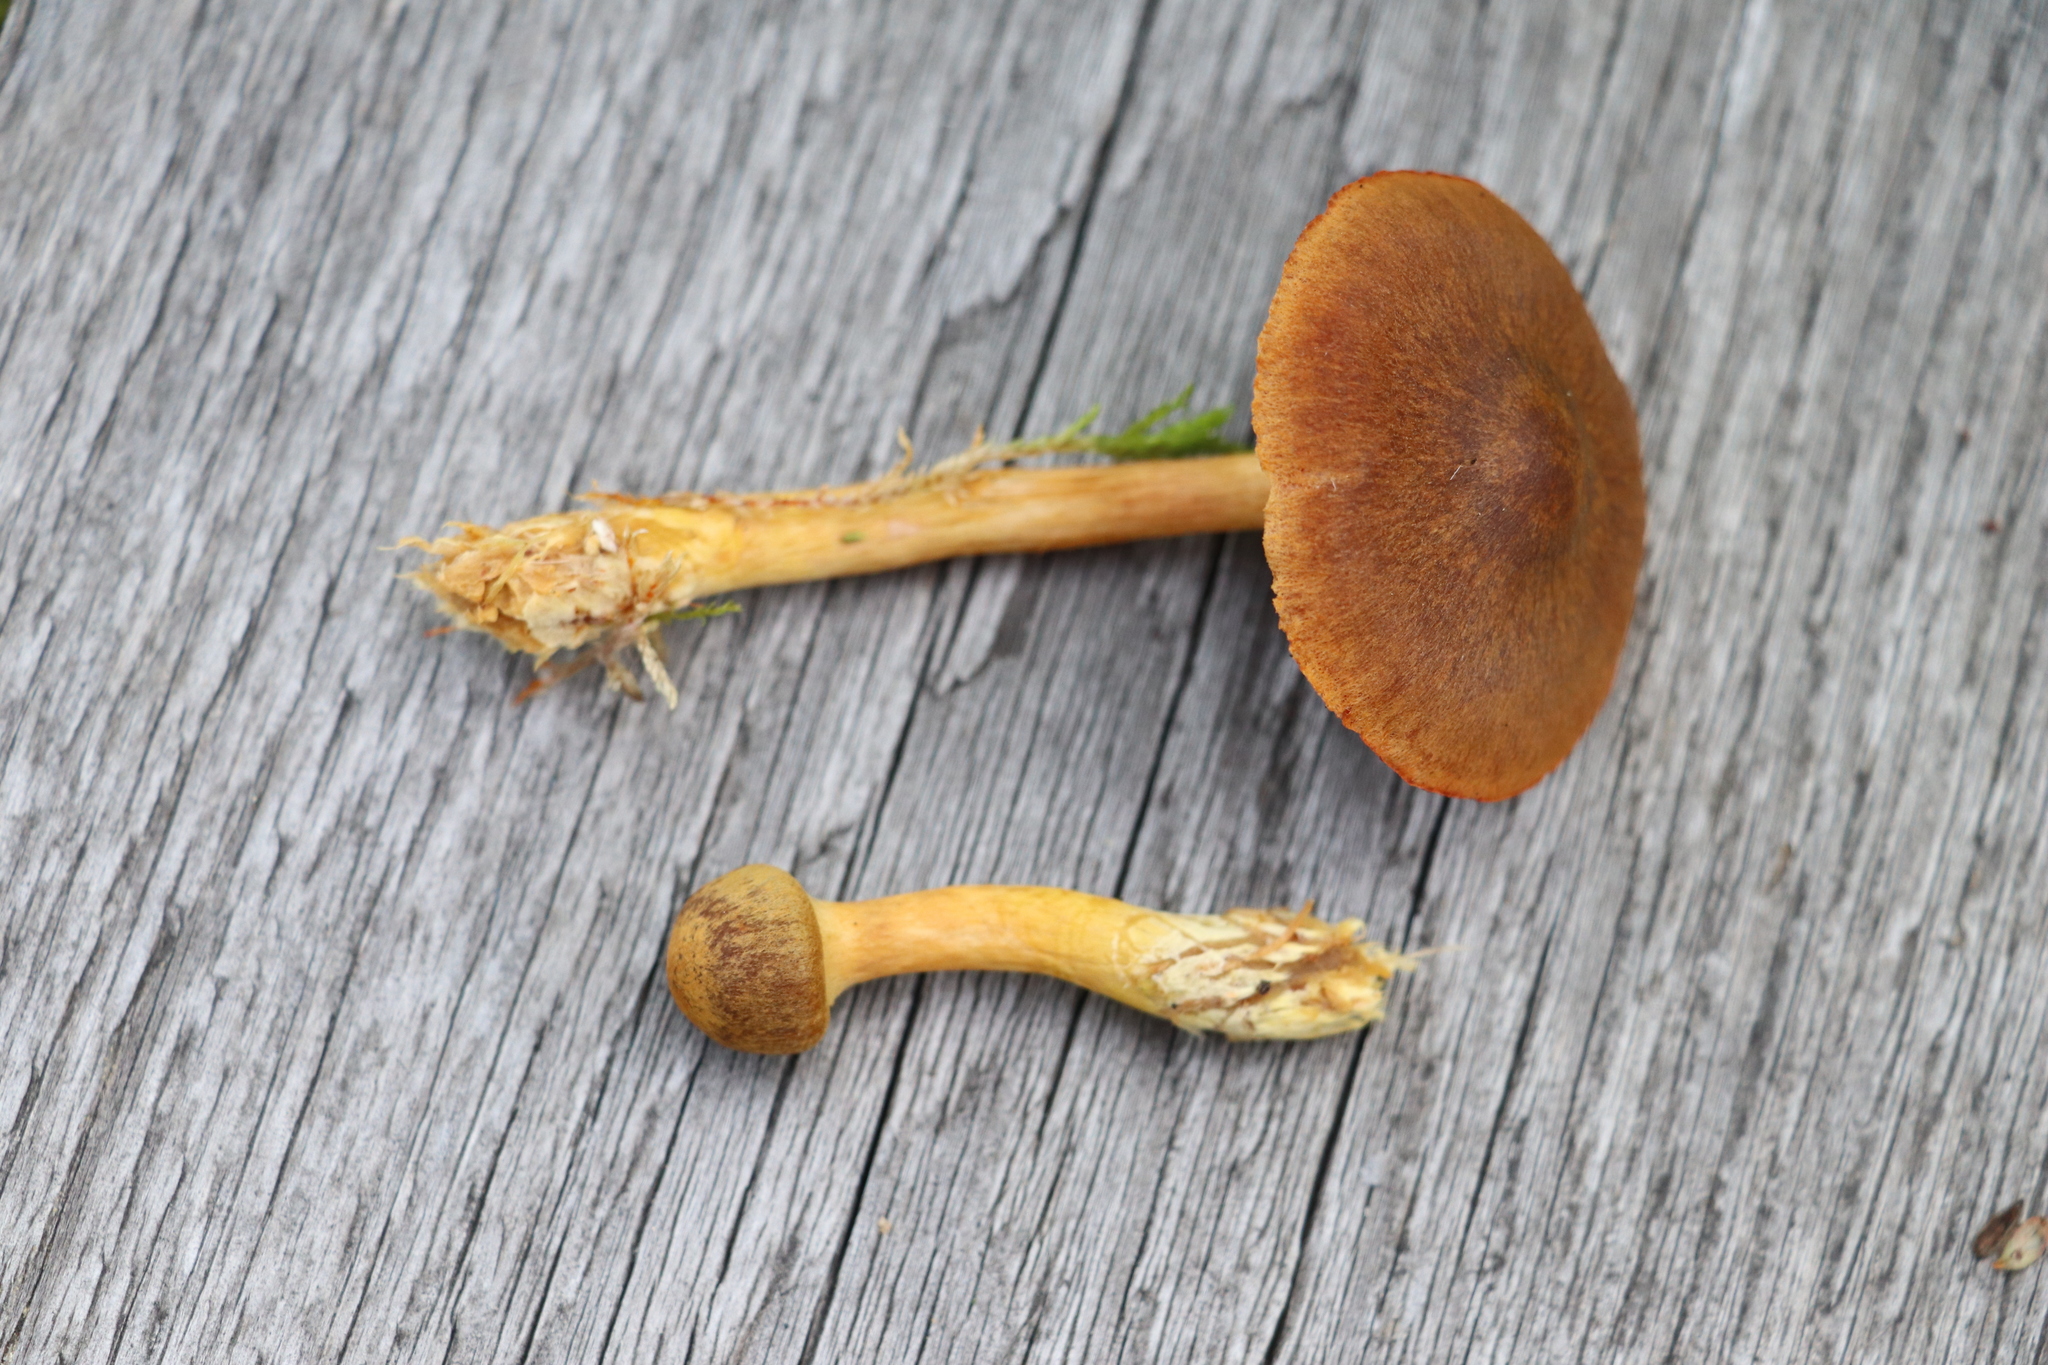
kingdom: Fungi
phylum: Basidiomycota
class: Agaricomycetes
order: Agaricales
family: Cortinariaceae
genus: Cortinarius
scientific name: Cortinarius semisanguineus
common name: Surprise webcap
